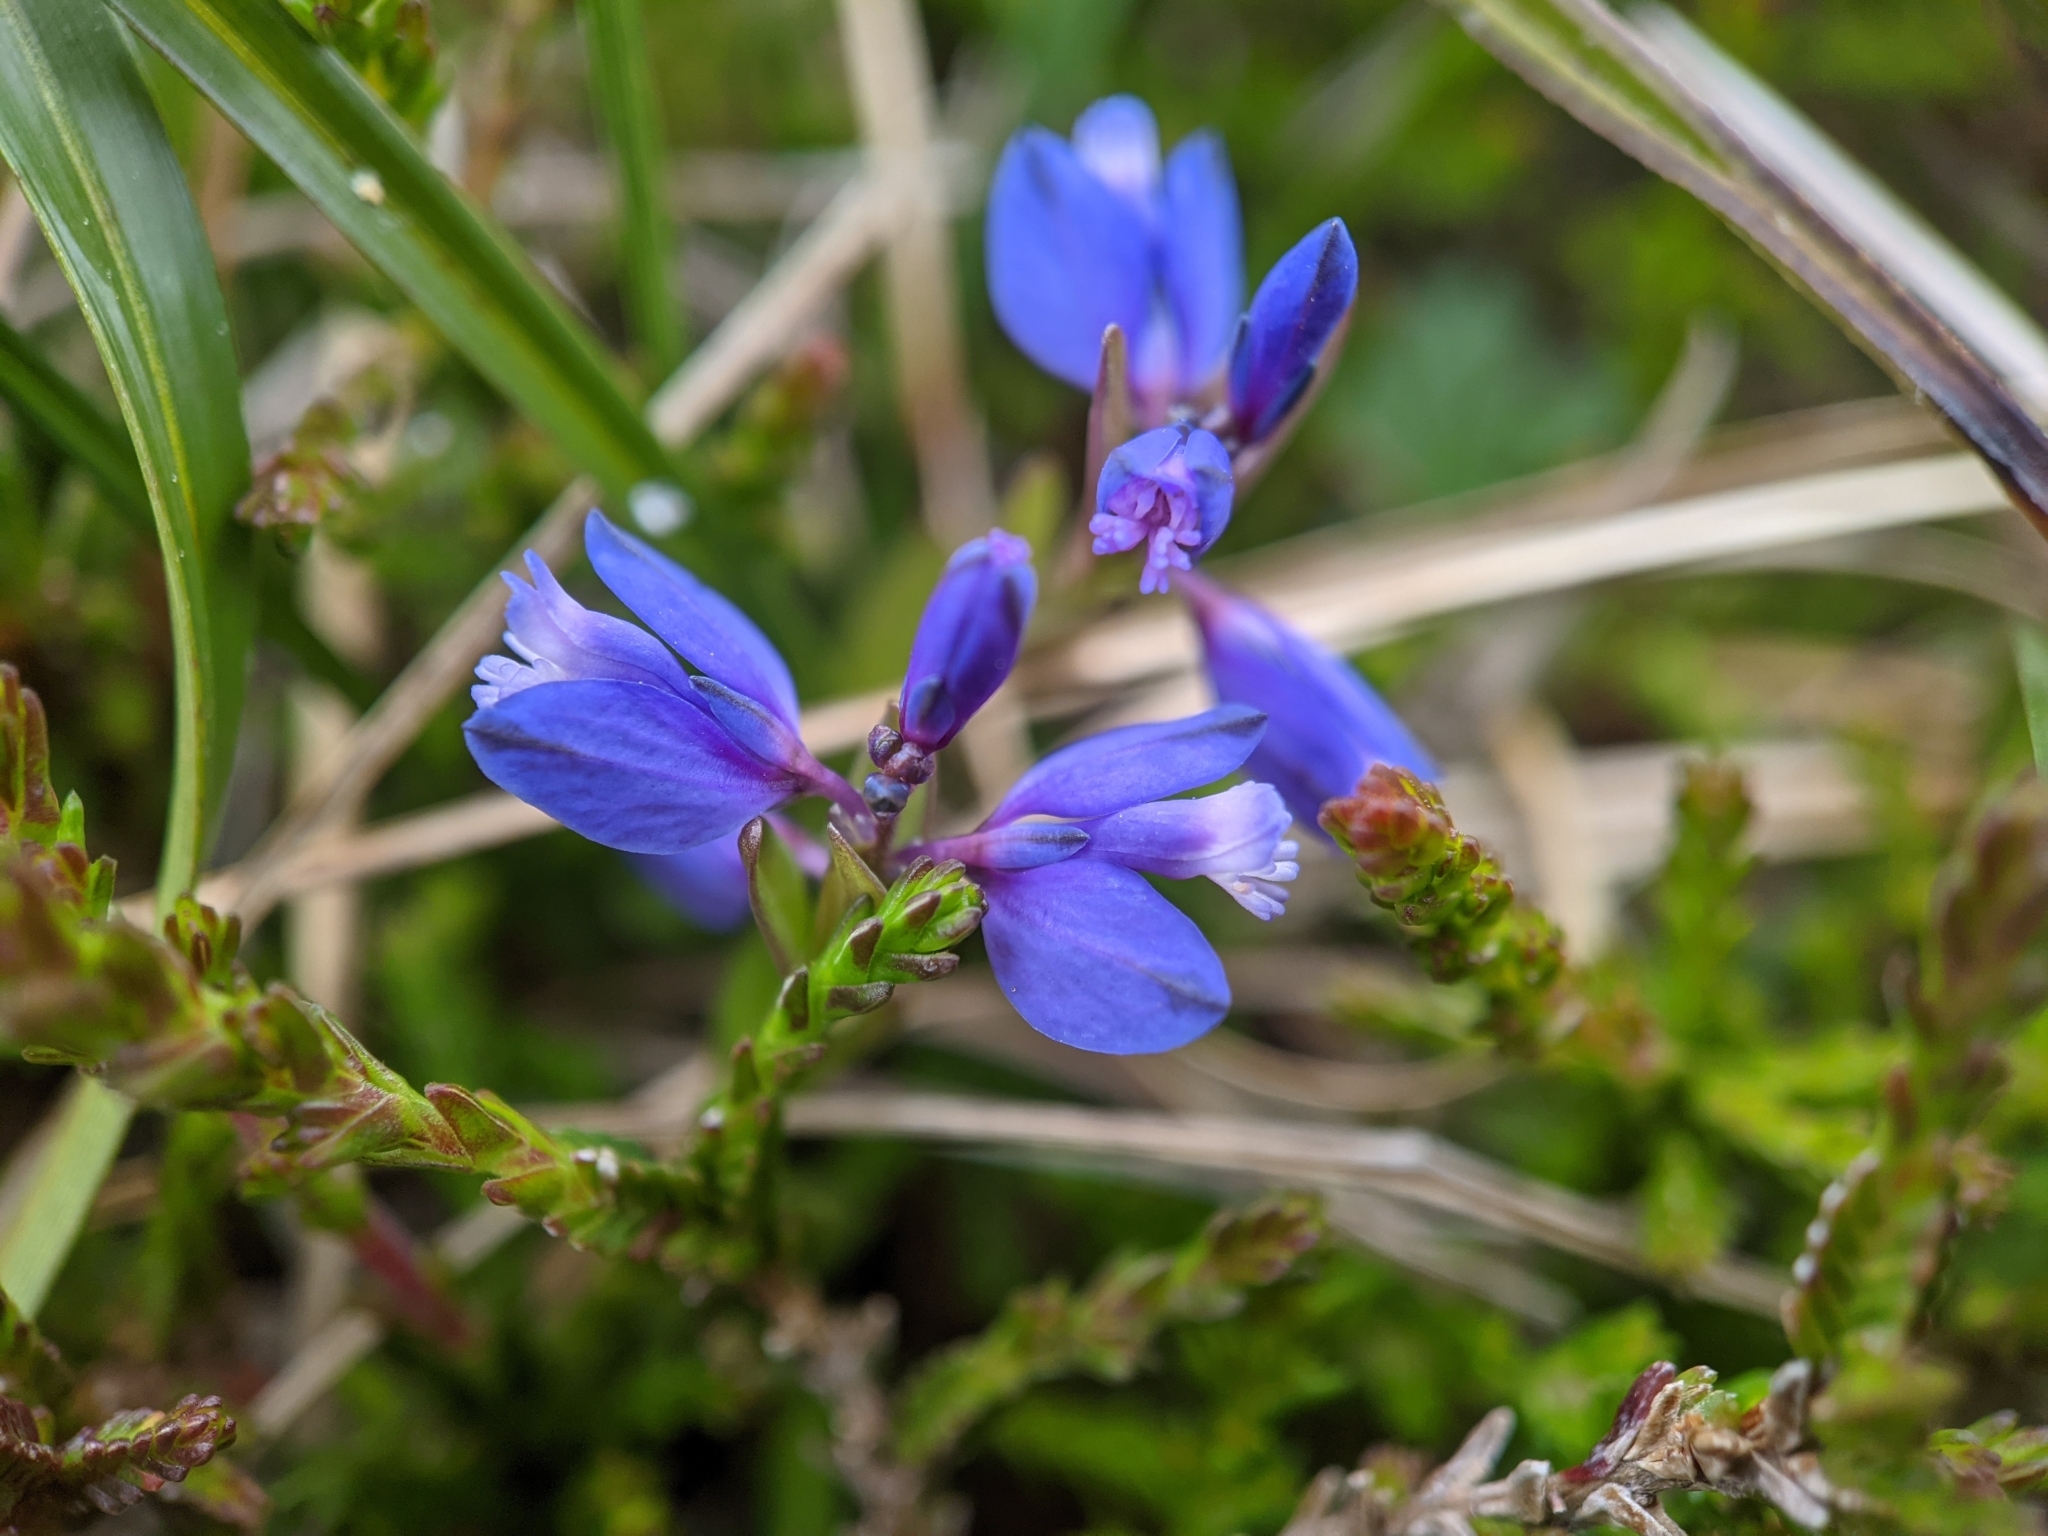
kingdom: Plantae
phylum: Tracheophyta
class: Magnoliopsida
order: Fabales
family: Polygalaceae
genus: Polygala
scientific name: Polygala vulgaris
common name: Common milkwort
